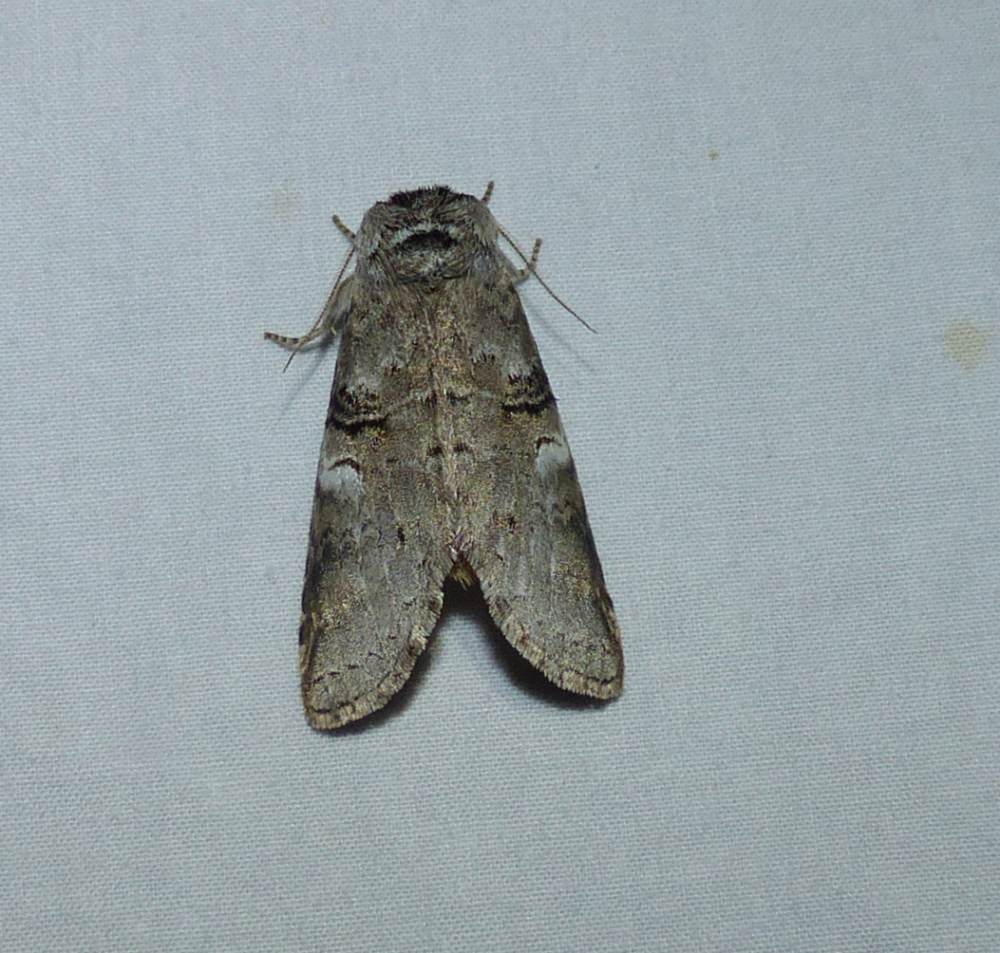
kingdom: Animalia
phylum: Arthropoda
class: Insecta
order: Lepidoptera
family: Notodontidae
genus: Ellida
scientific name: Ellida caniplaga
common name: Linden prominent
